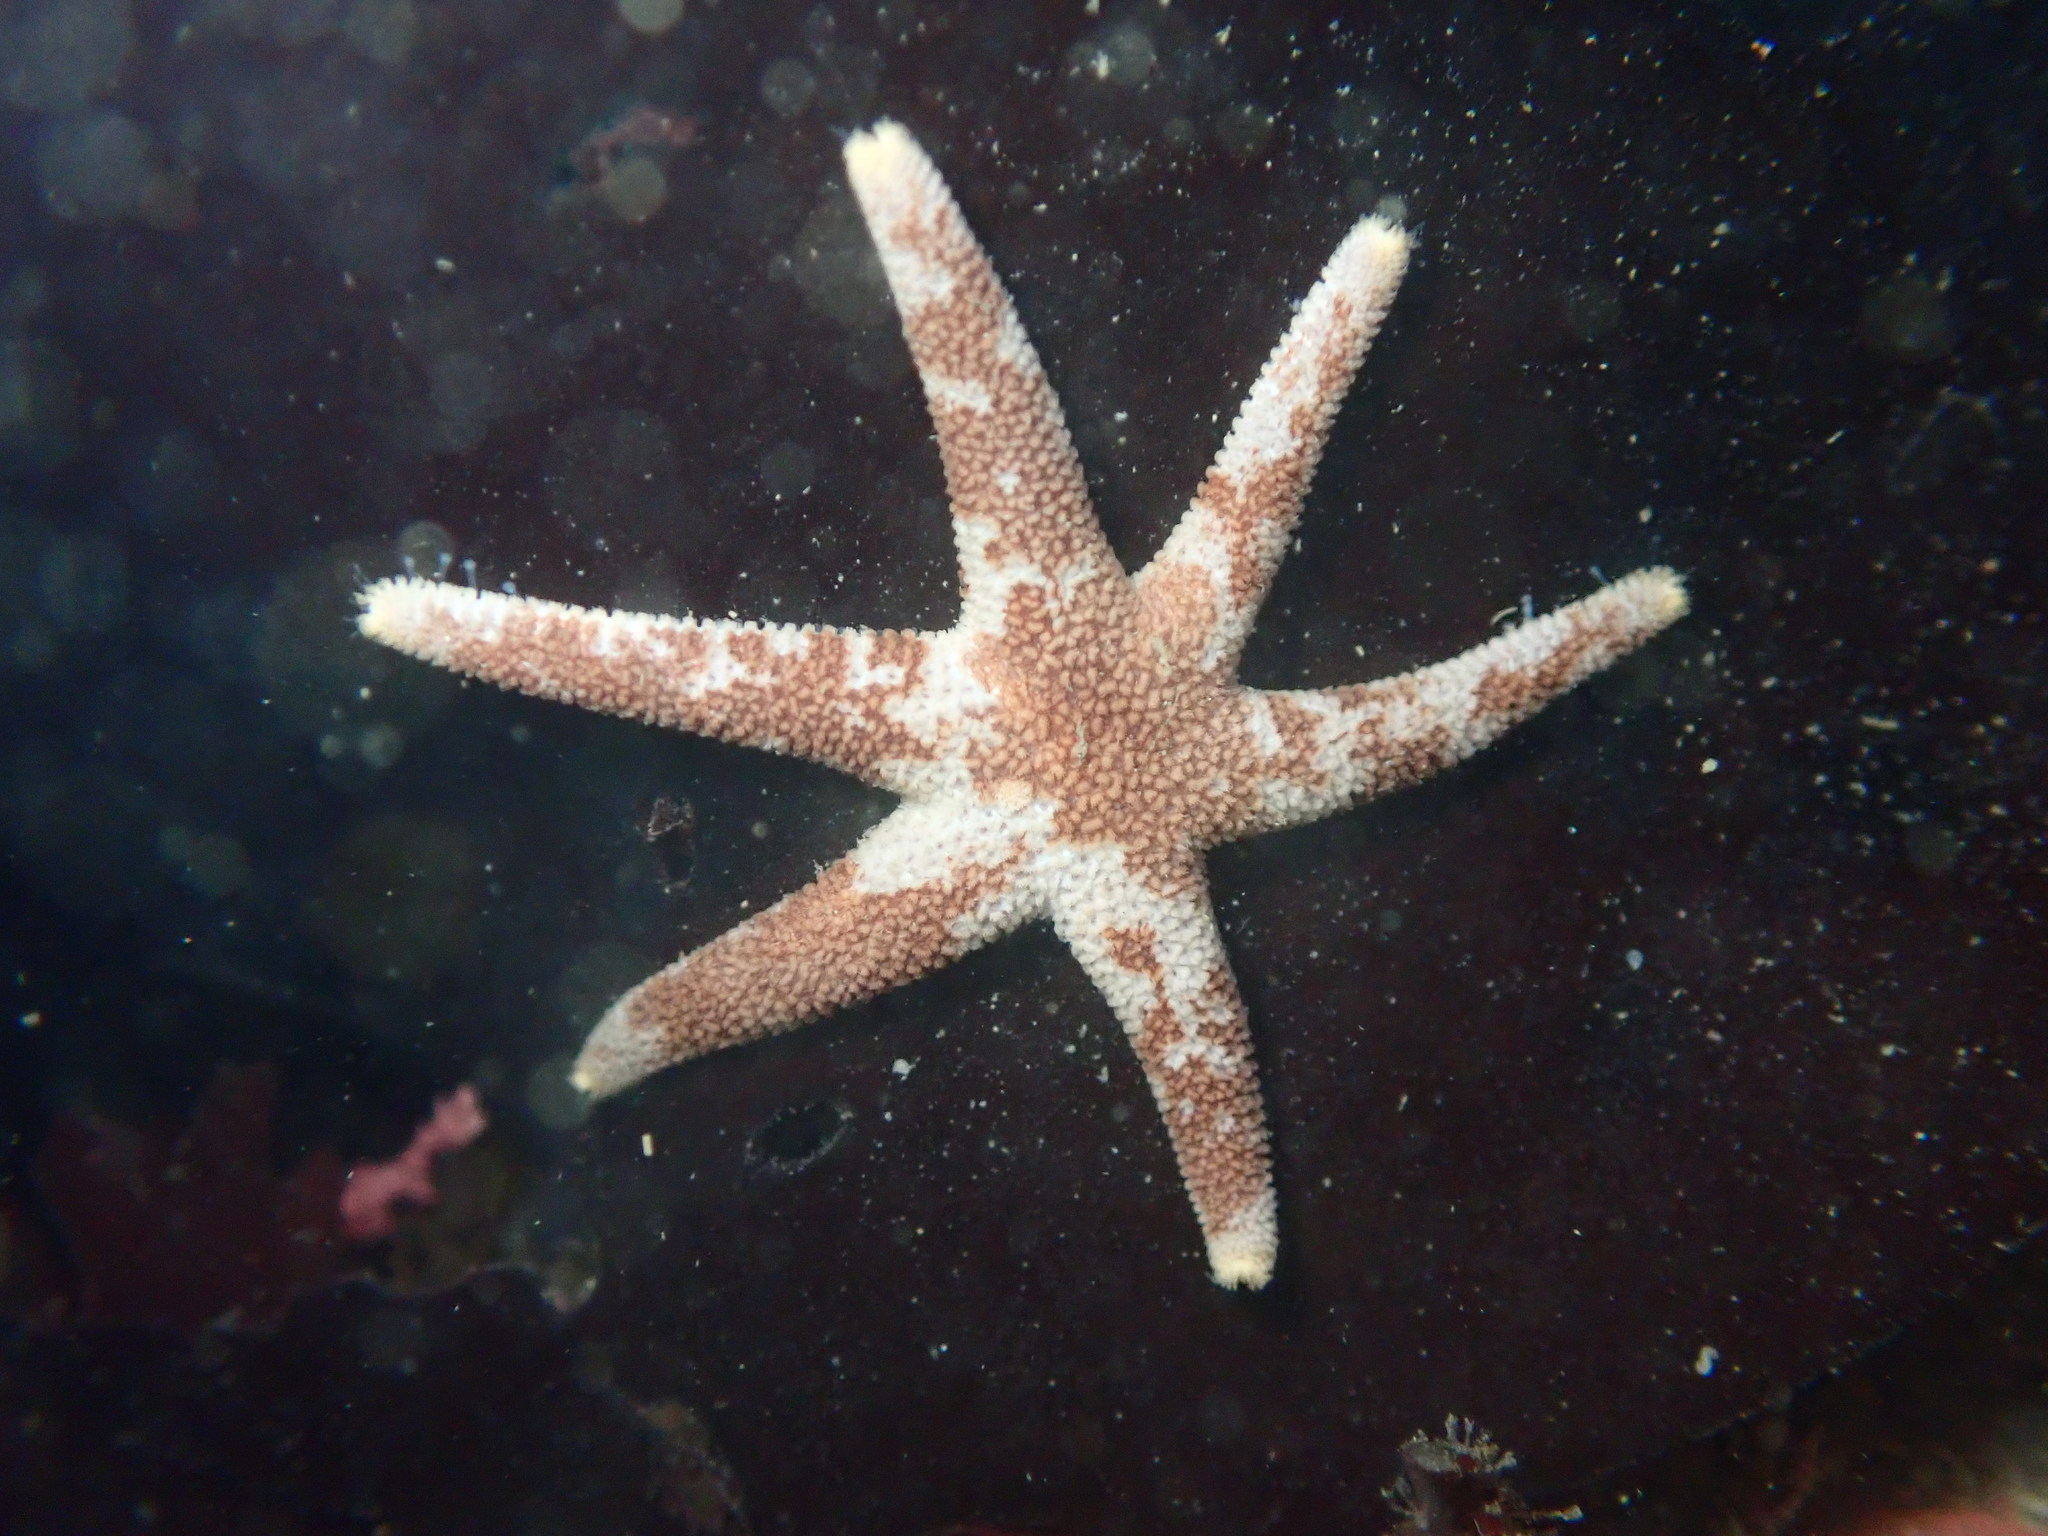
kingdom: Animalia
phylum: Echinodermata
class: Asteroidea
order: Spinulosida
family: Echinasteridae
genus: Henricia
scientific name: Henricia pumila
